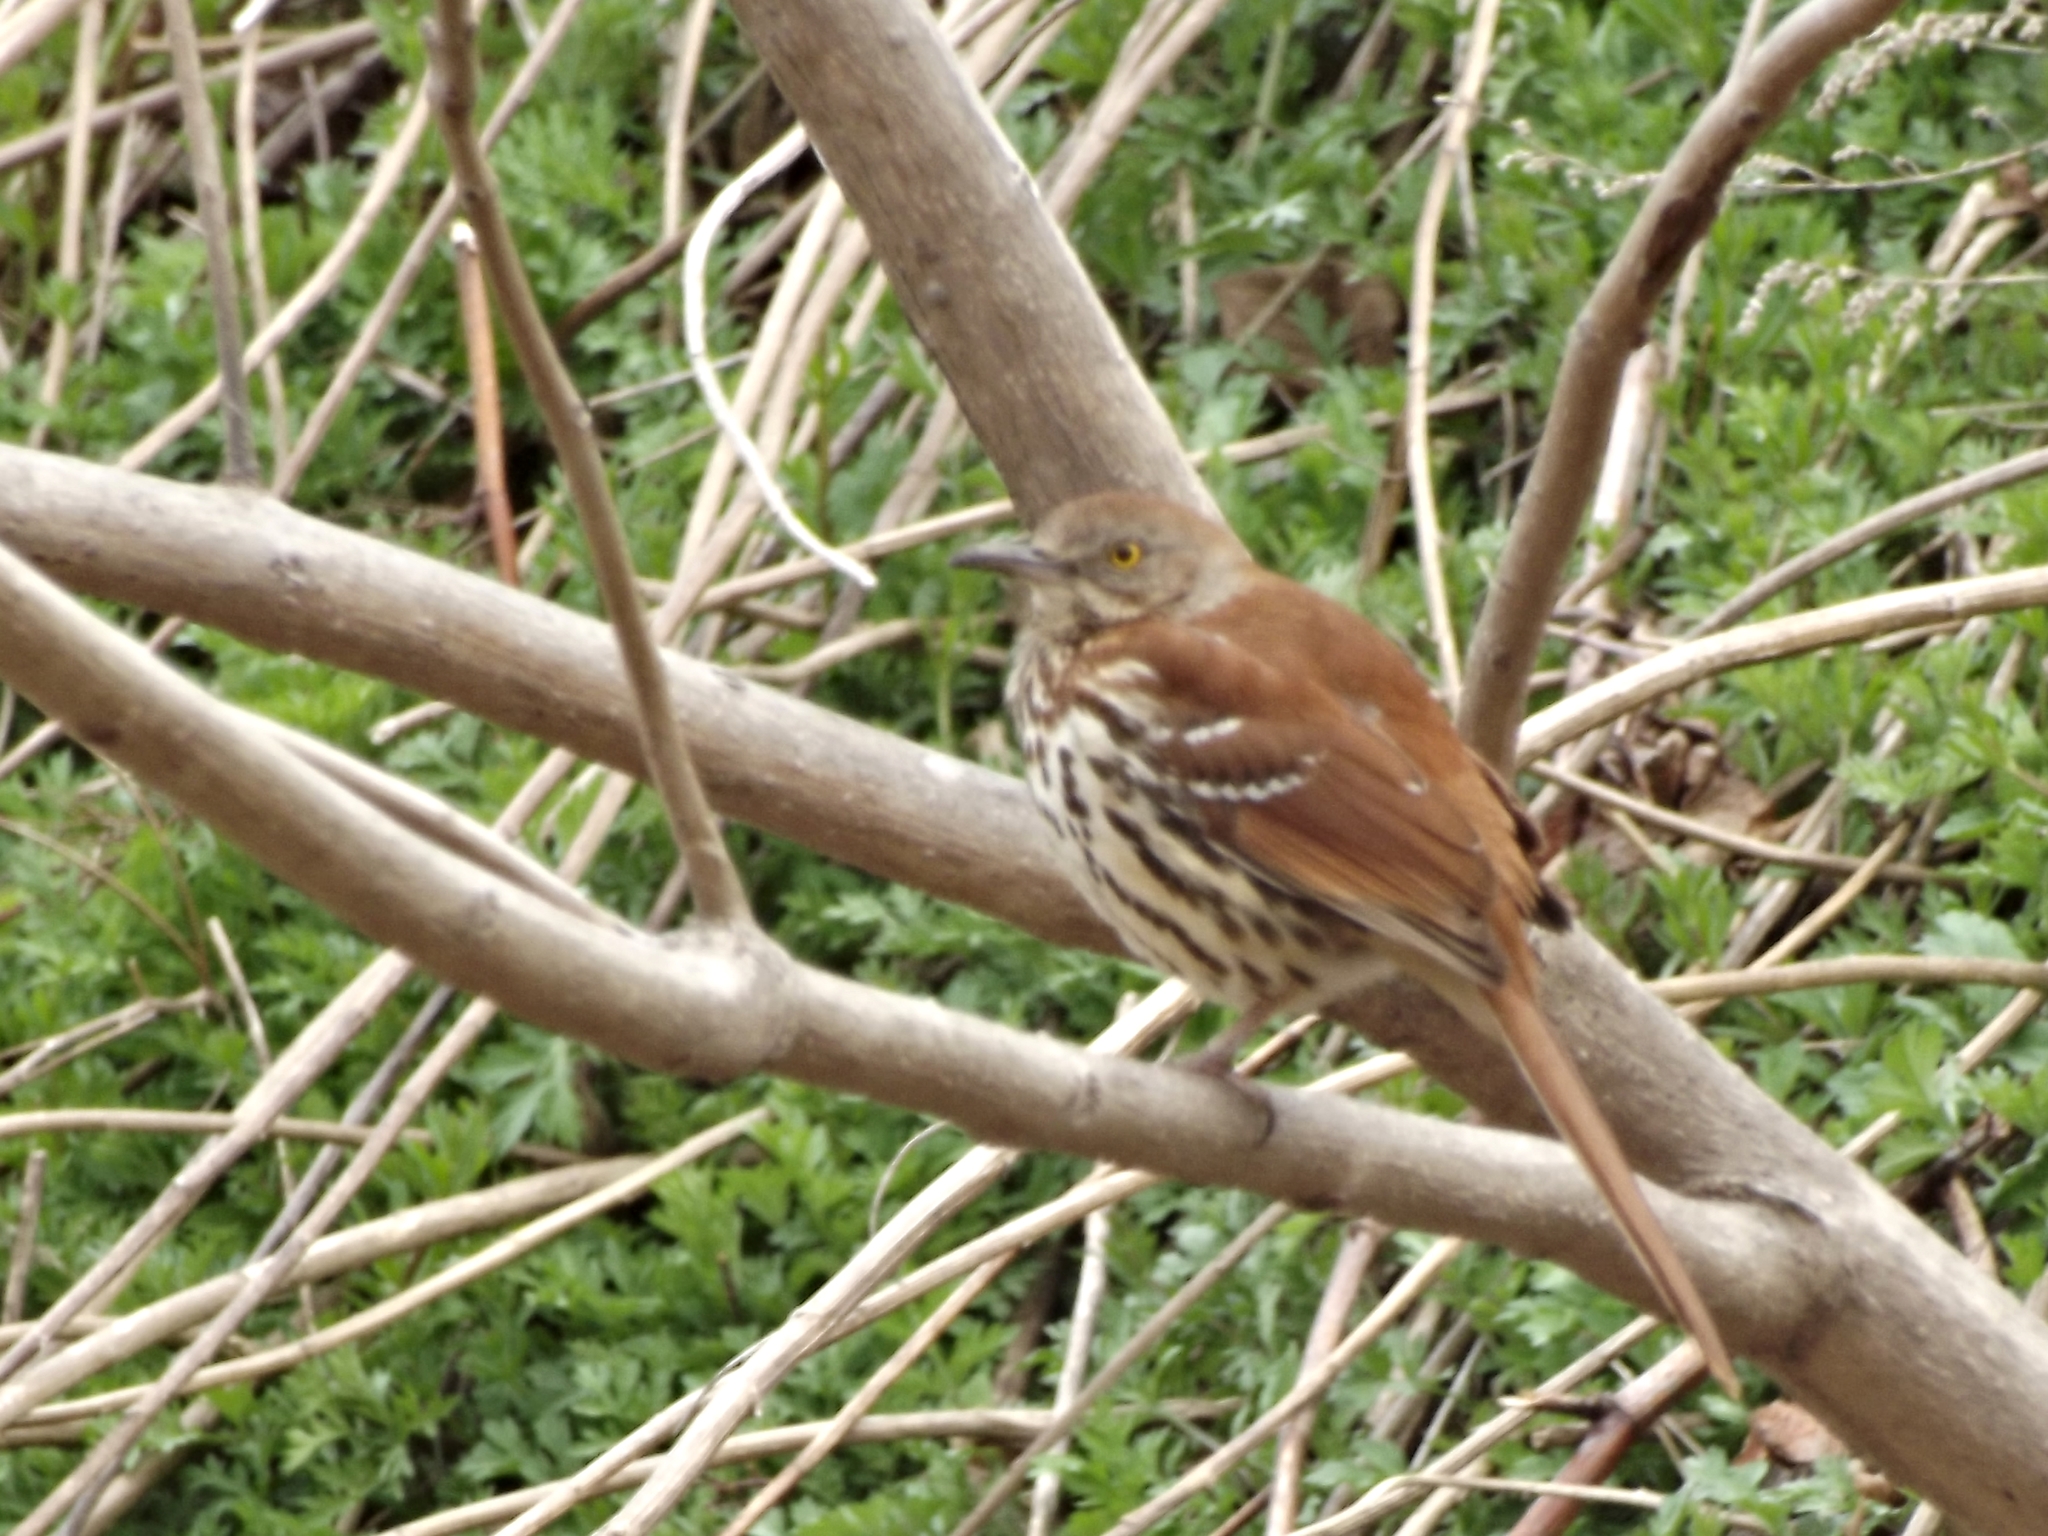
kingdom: Animalia
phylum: Chordata
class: Aves
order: Passeriformes
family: Mimidae
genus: Toxostoma
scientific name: Toxostoma rufum
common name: Brown thrasher
